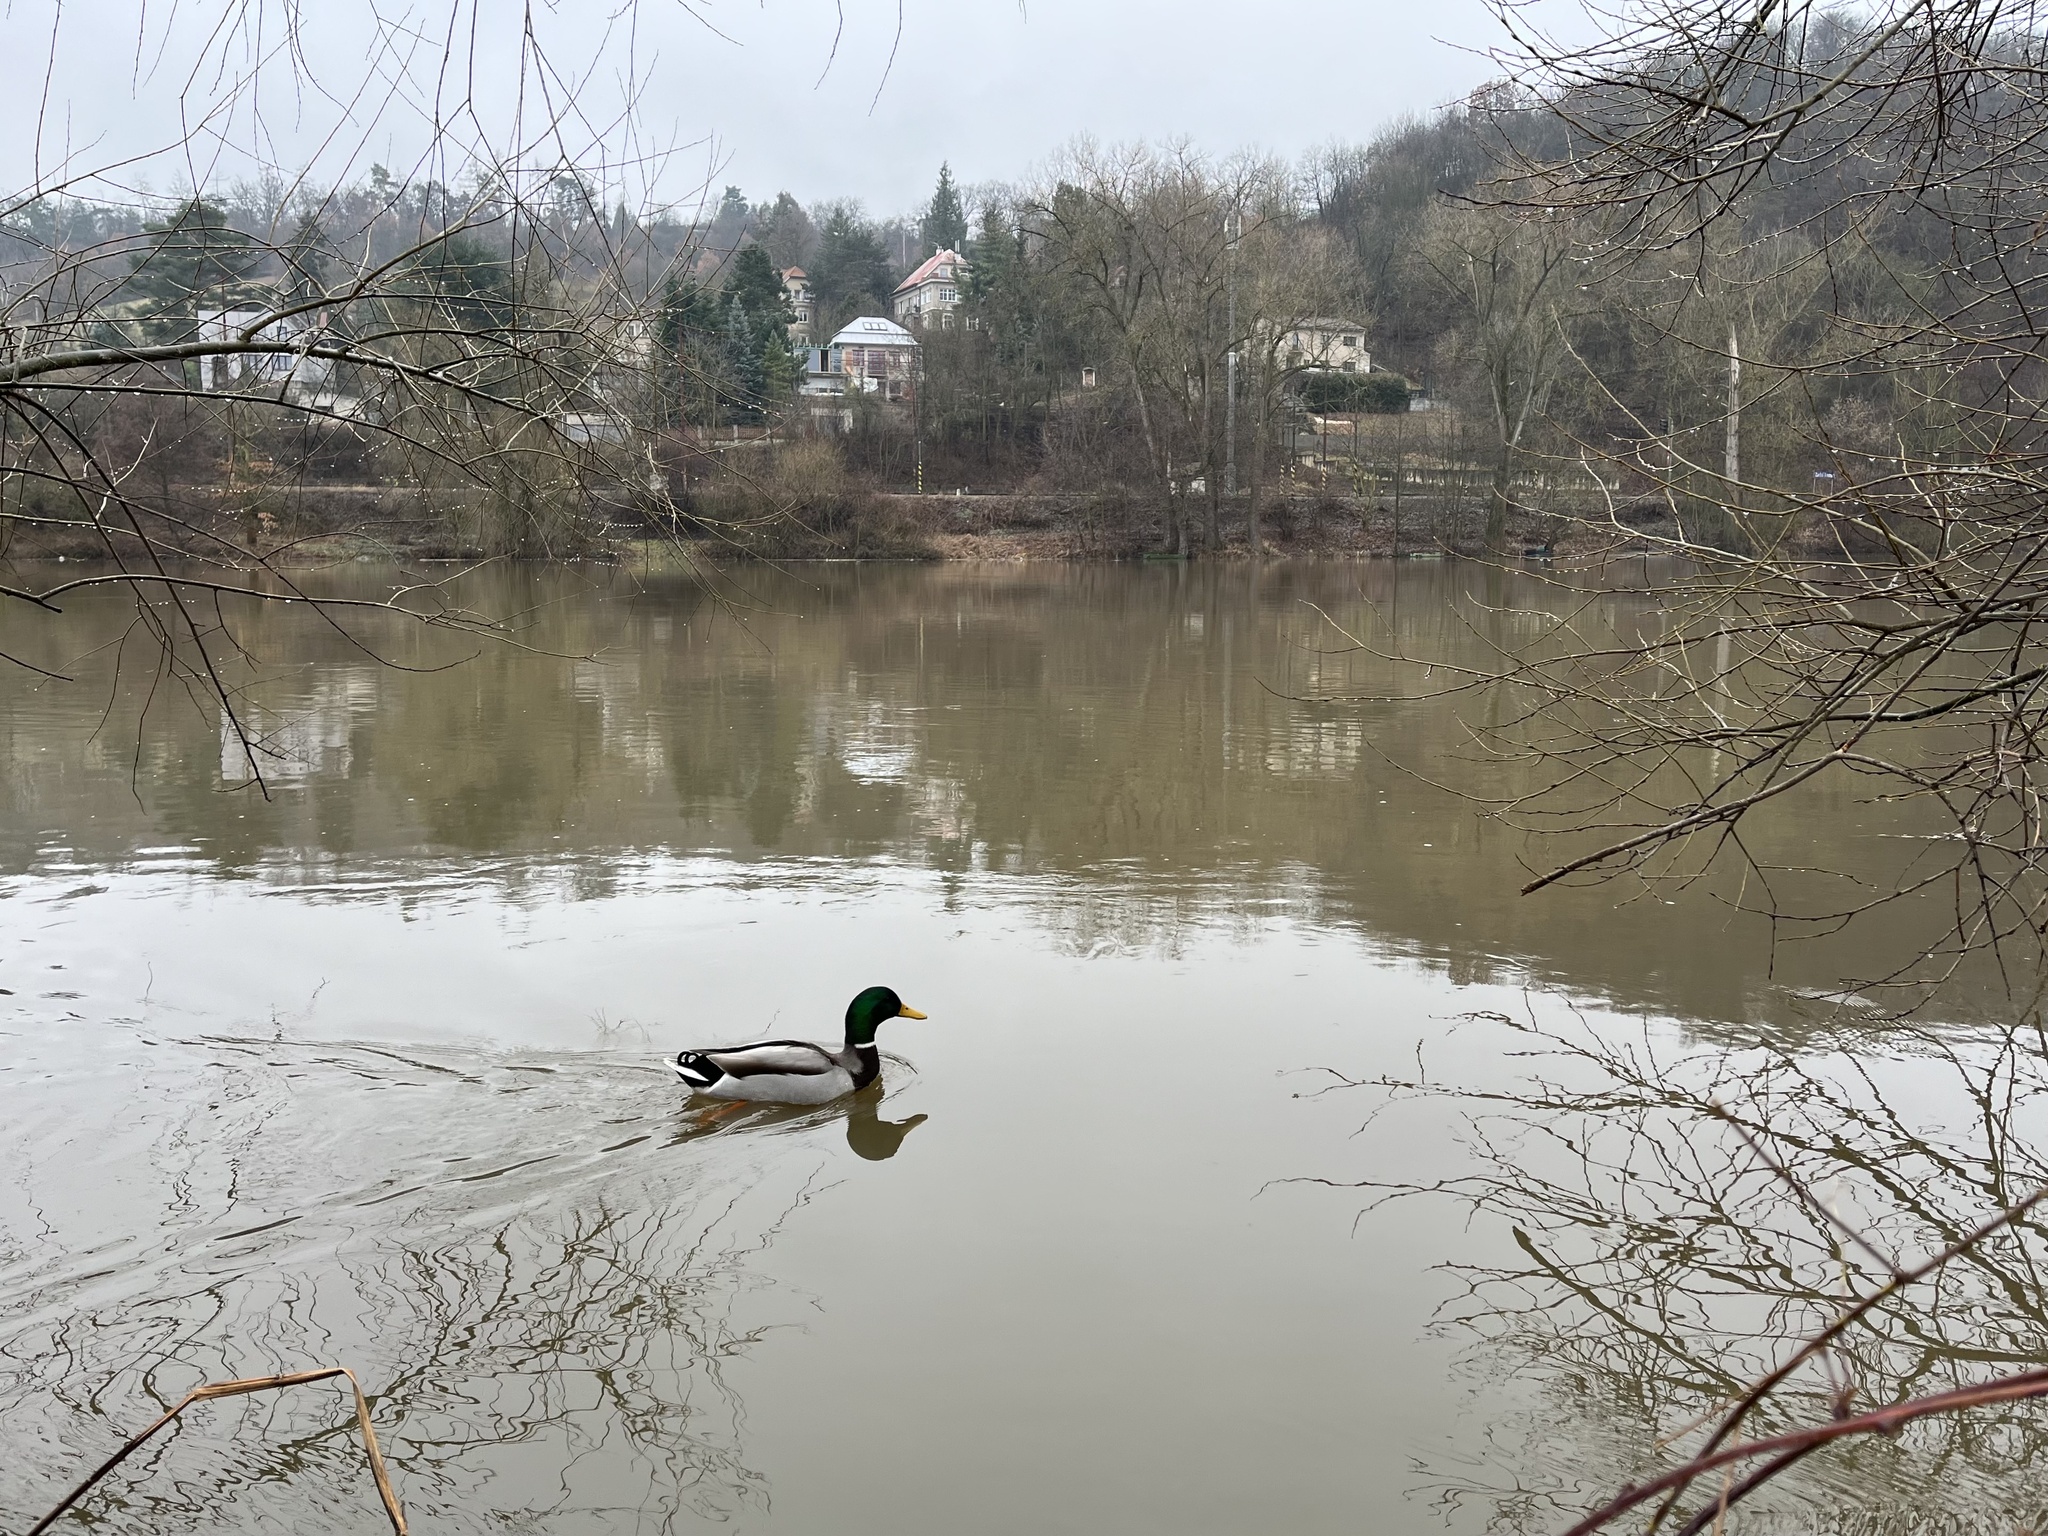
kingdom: Animalia
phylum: Chordata
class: Aves
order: Anseriformes
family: Anatidae
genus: Anas
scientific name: Anas platyrhynchos
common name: Mallard
